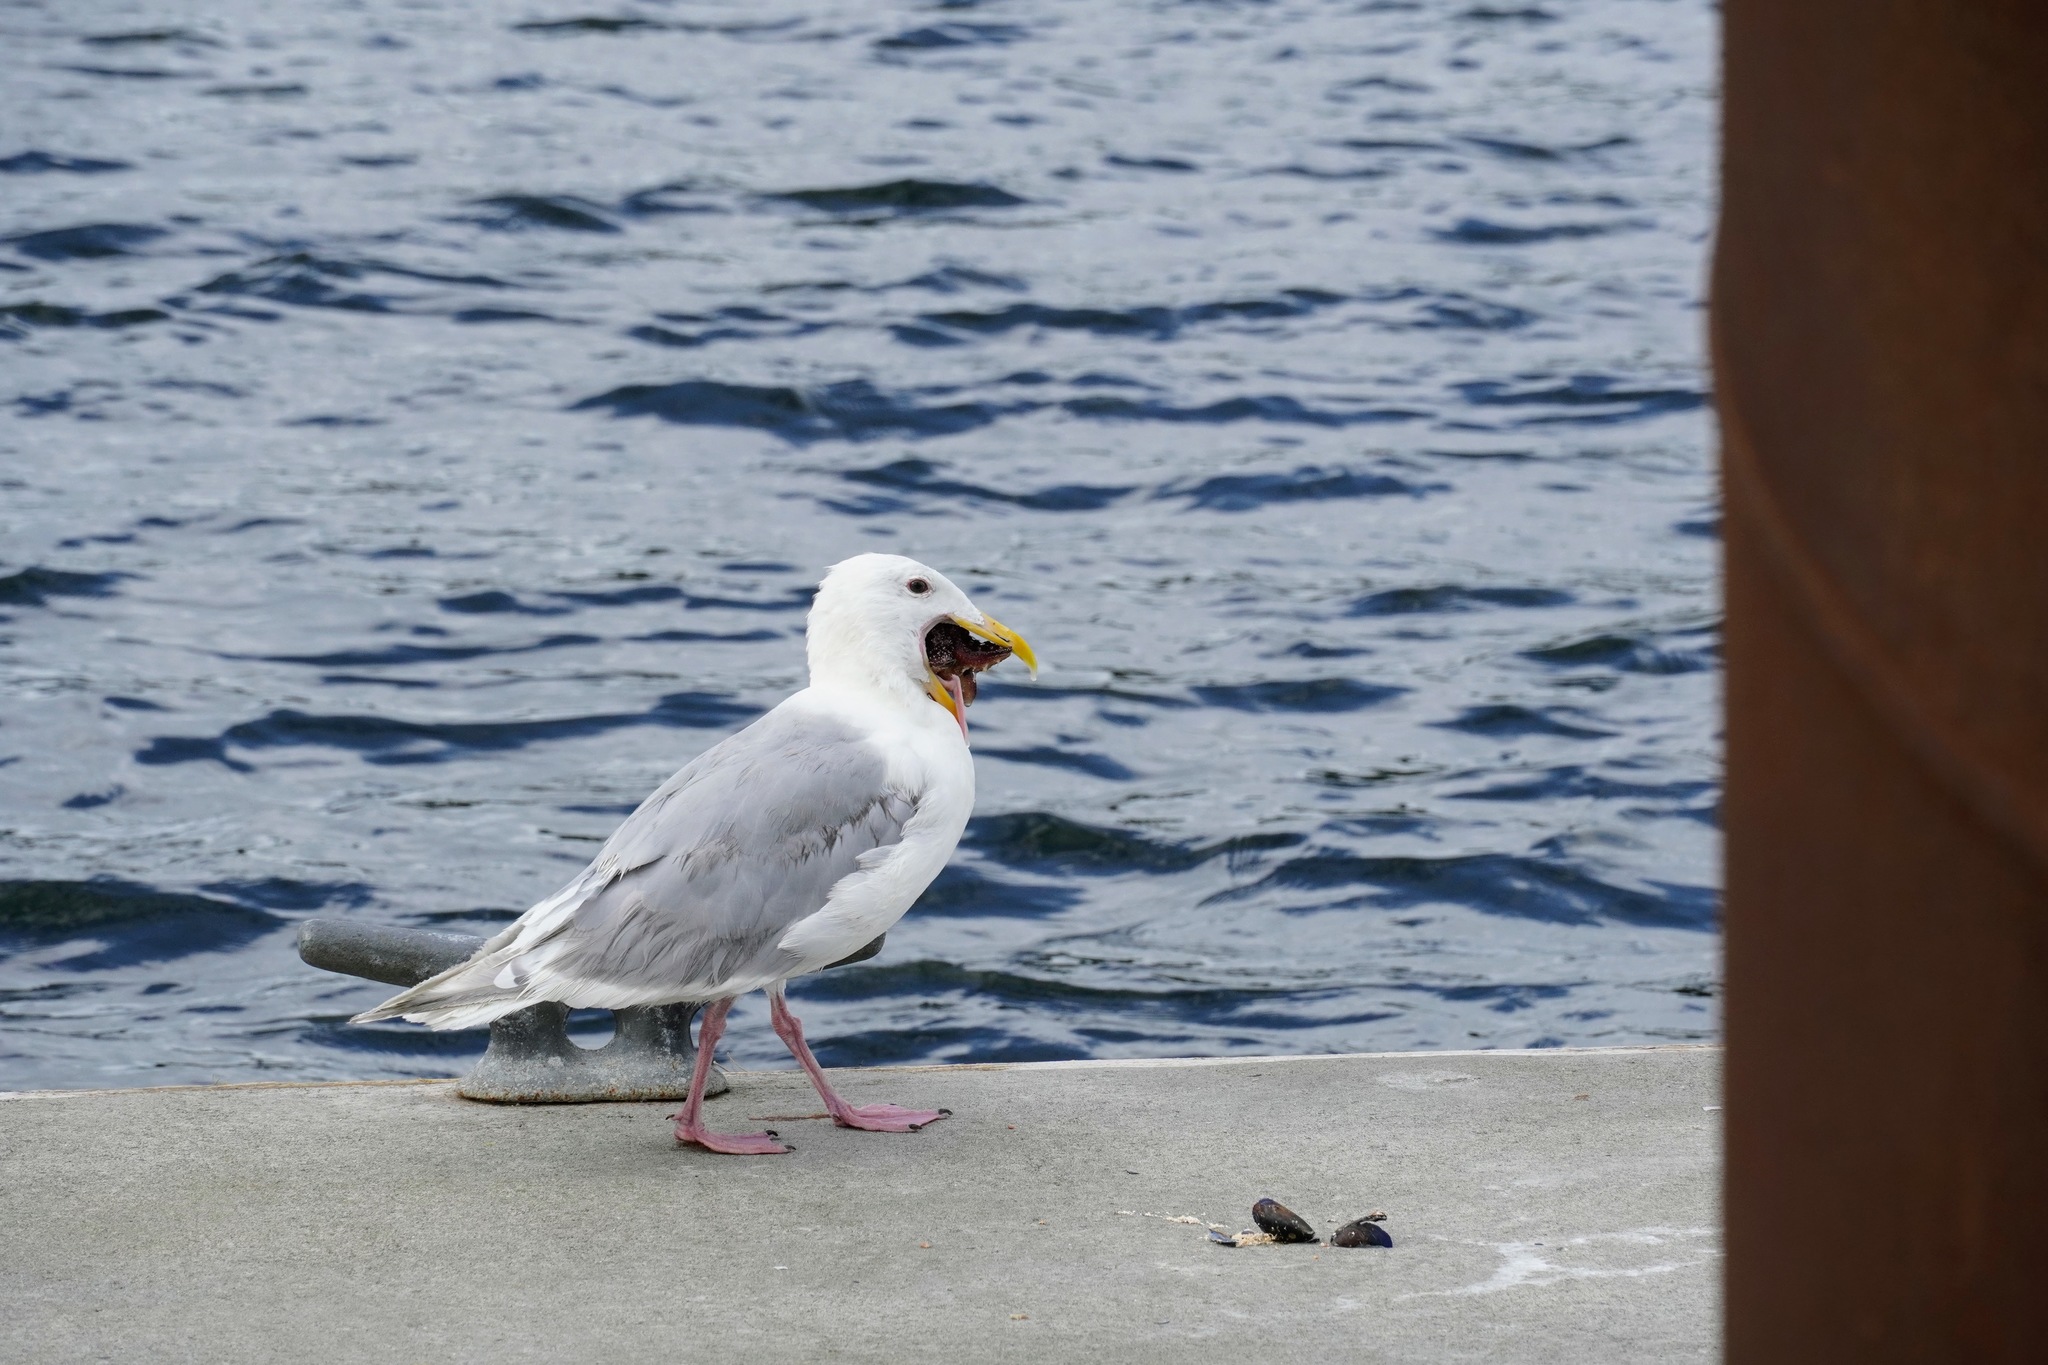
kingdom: Animalia
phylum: Chordata
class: Aves
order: Charadriiformes
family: Laridae
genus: Larus
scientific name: Larus glaucescens
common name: Glaucous-winged gull
